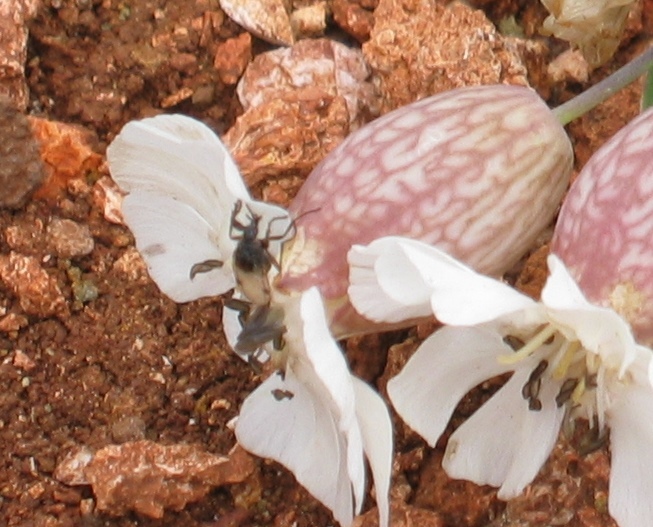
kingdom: Animalia
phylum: Arthropoda
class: Insecta
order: Diptera
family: Bibionidae
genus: Dilophus
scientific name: Dilophus femoratus
